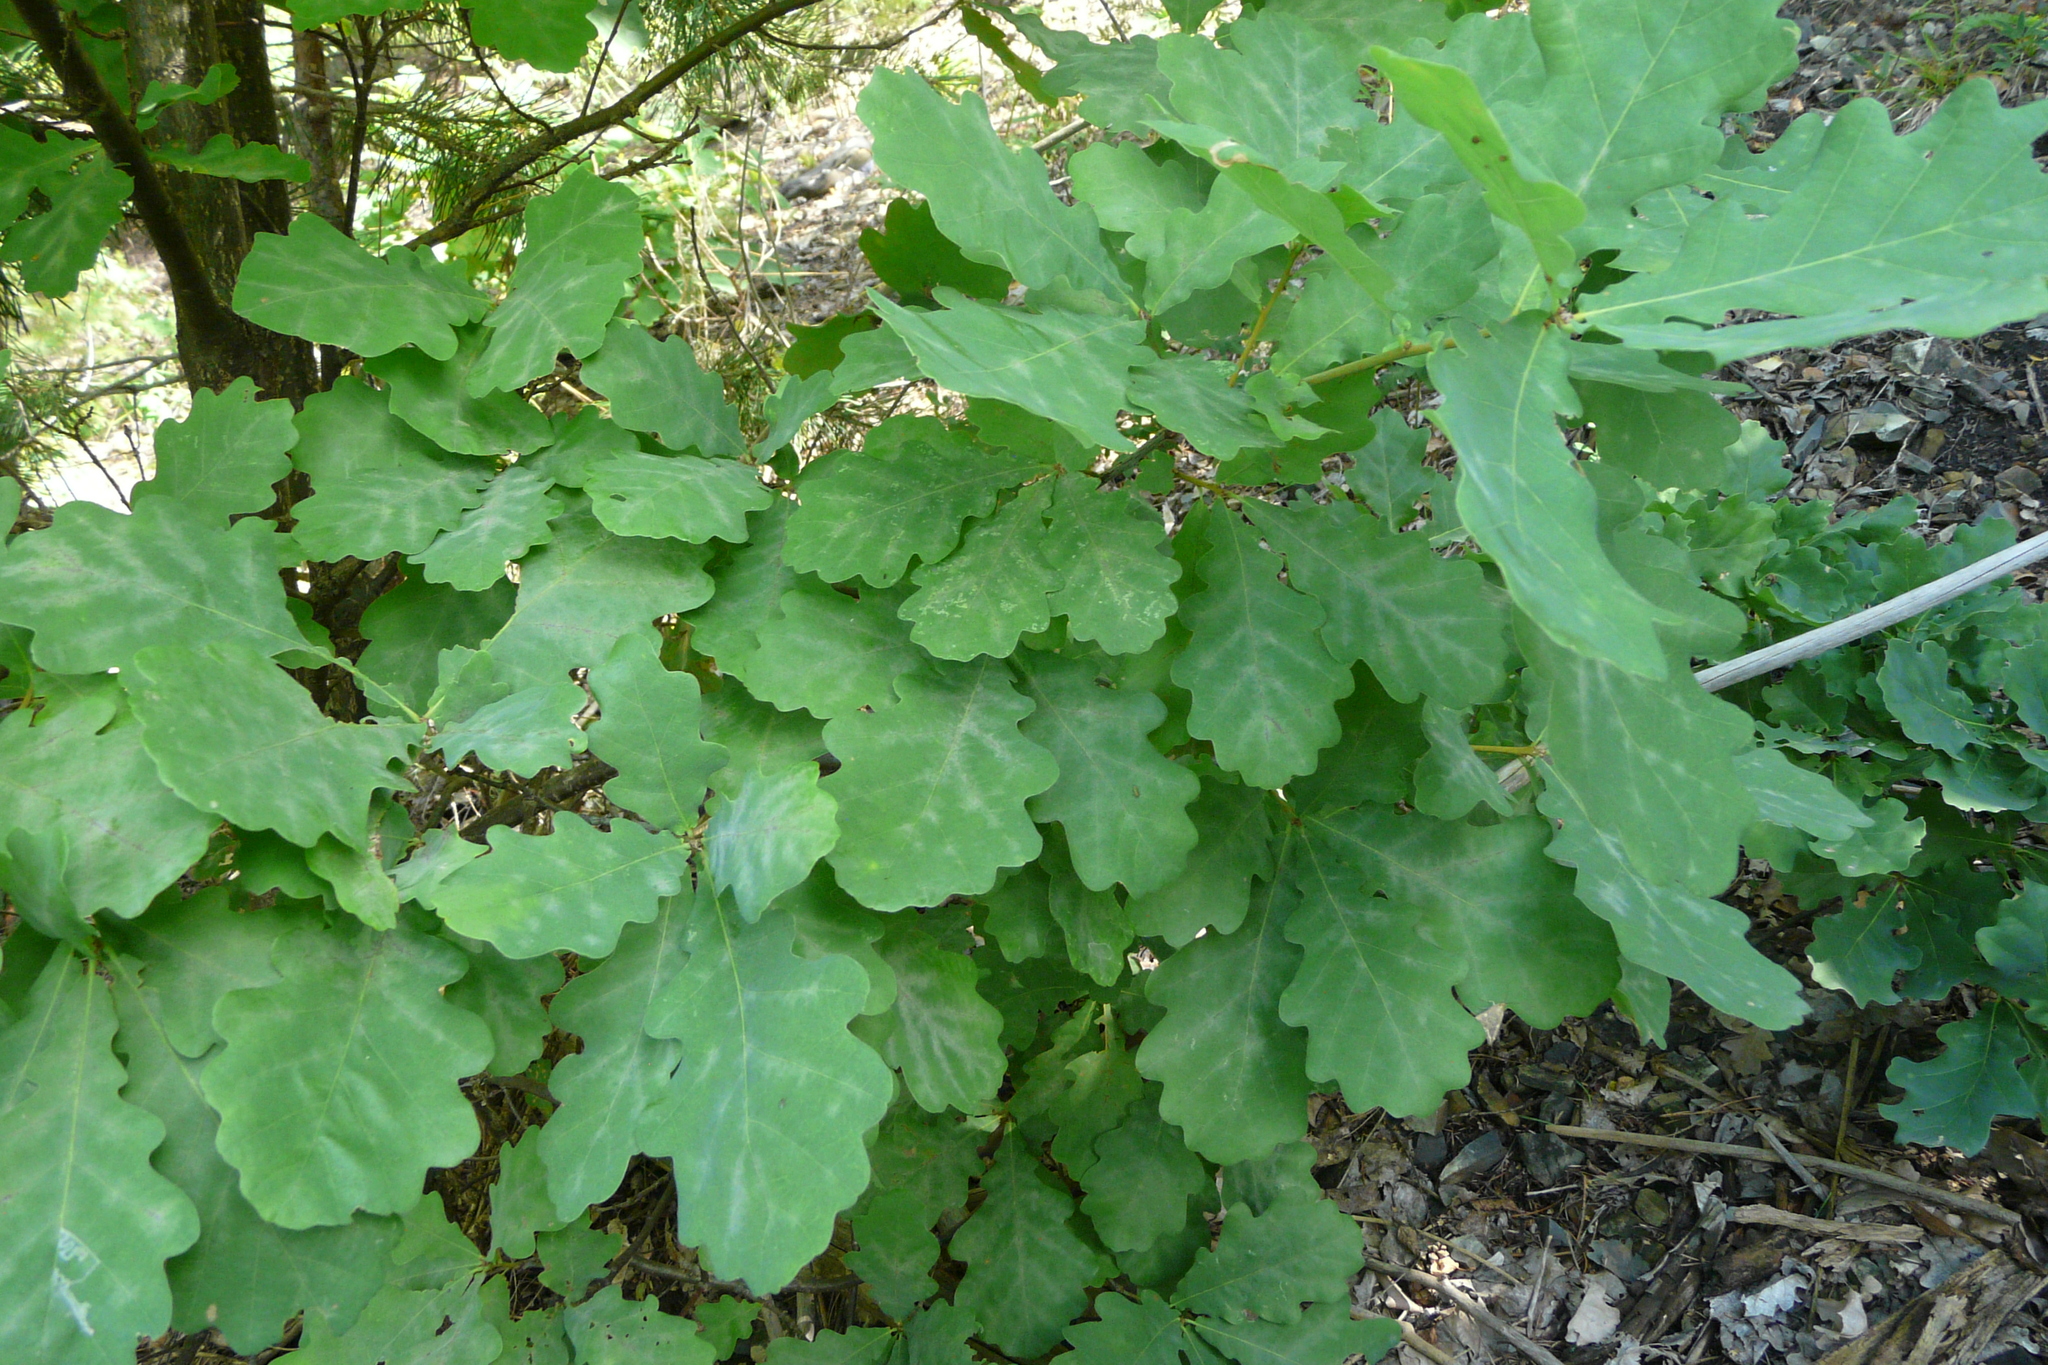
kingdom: Plantae
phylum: Tracheophyta
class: Magnoliopsida
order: Fagales
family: Fagaceae
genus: Quercus
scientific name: Quercus robur
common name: Pedunculate oak
